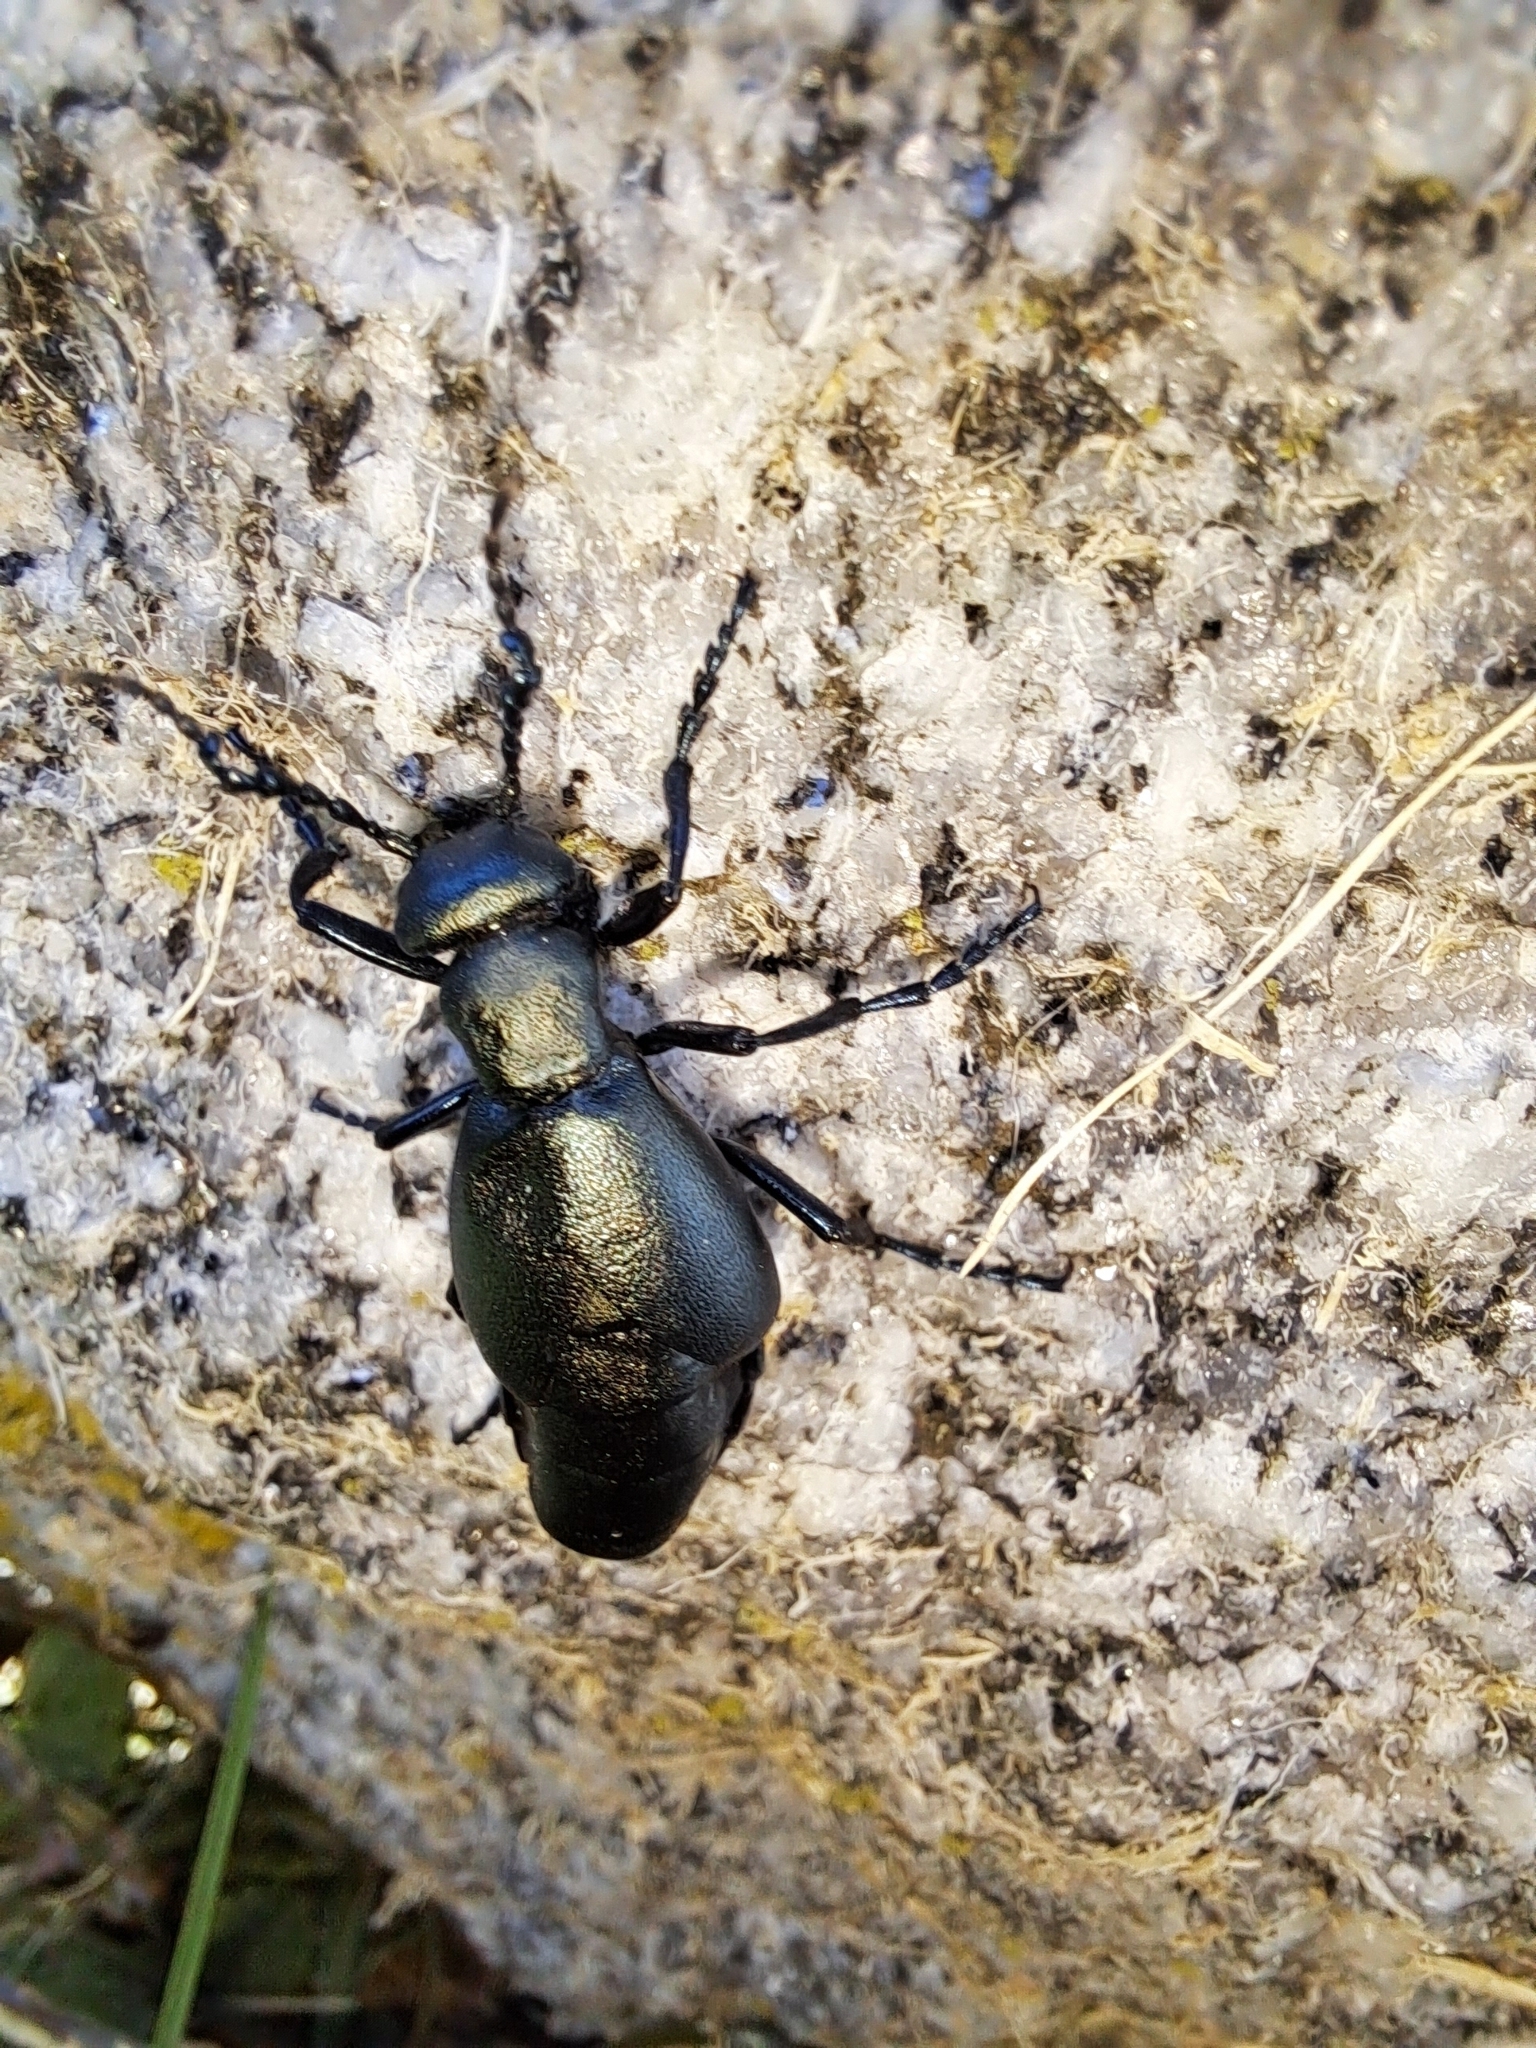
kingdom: Animalia
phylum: Arthropoda
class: Insecta
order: Coleoptera
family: Meloidae
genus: Meloe
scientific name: Meloe campanicollis
